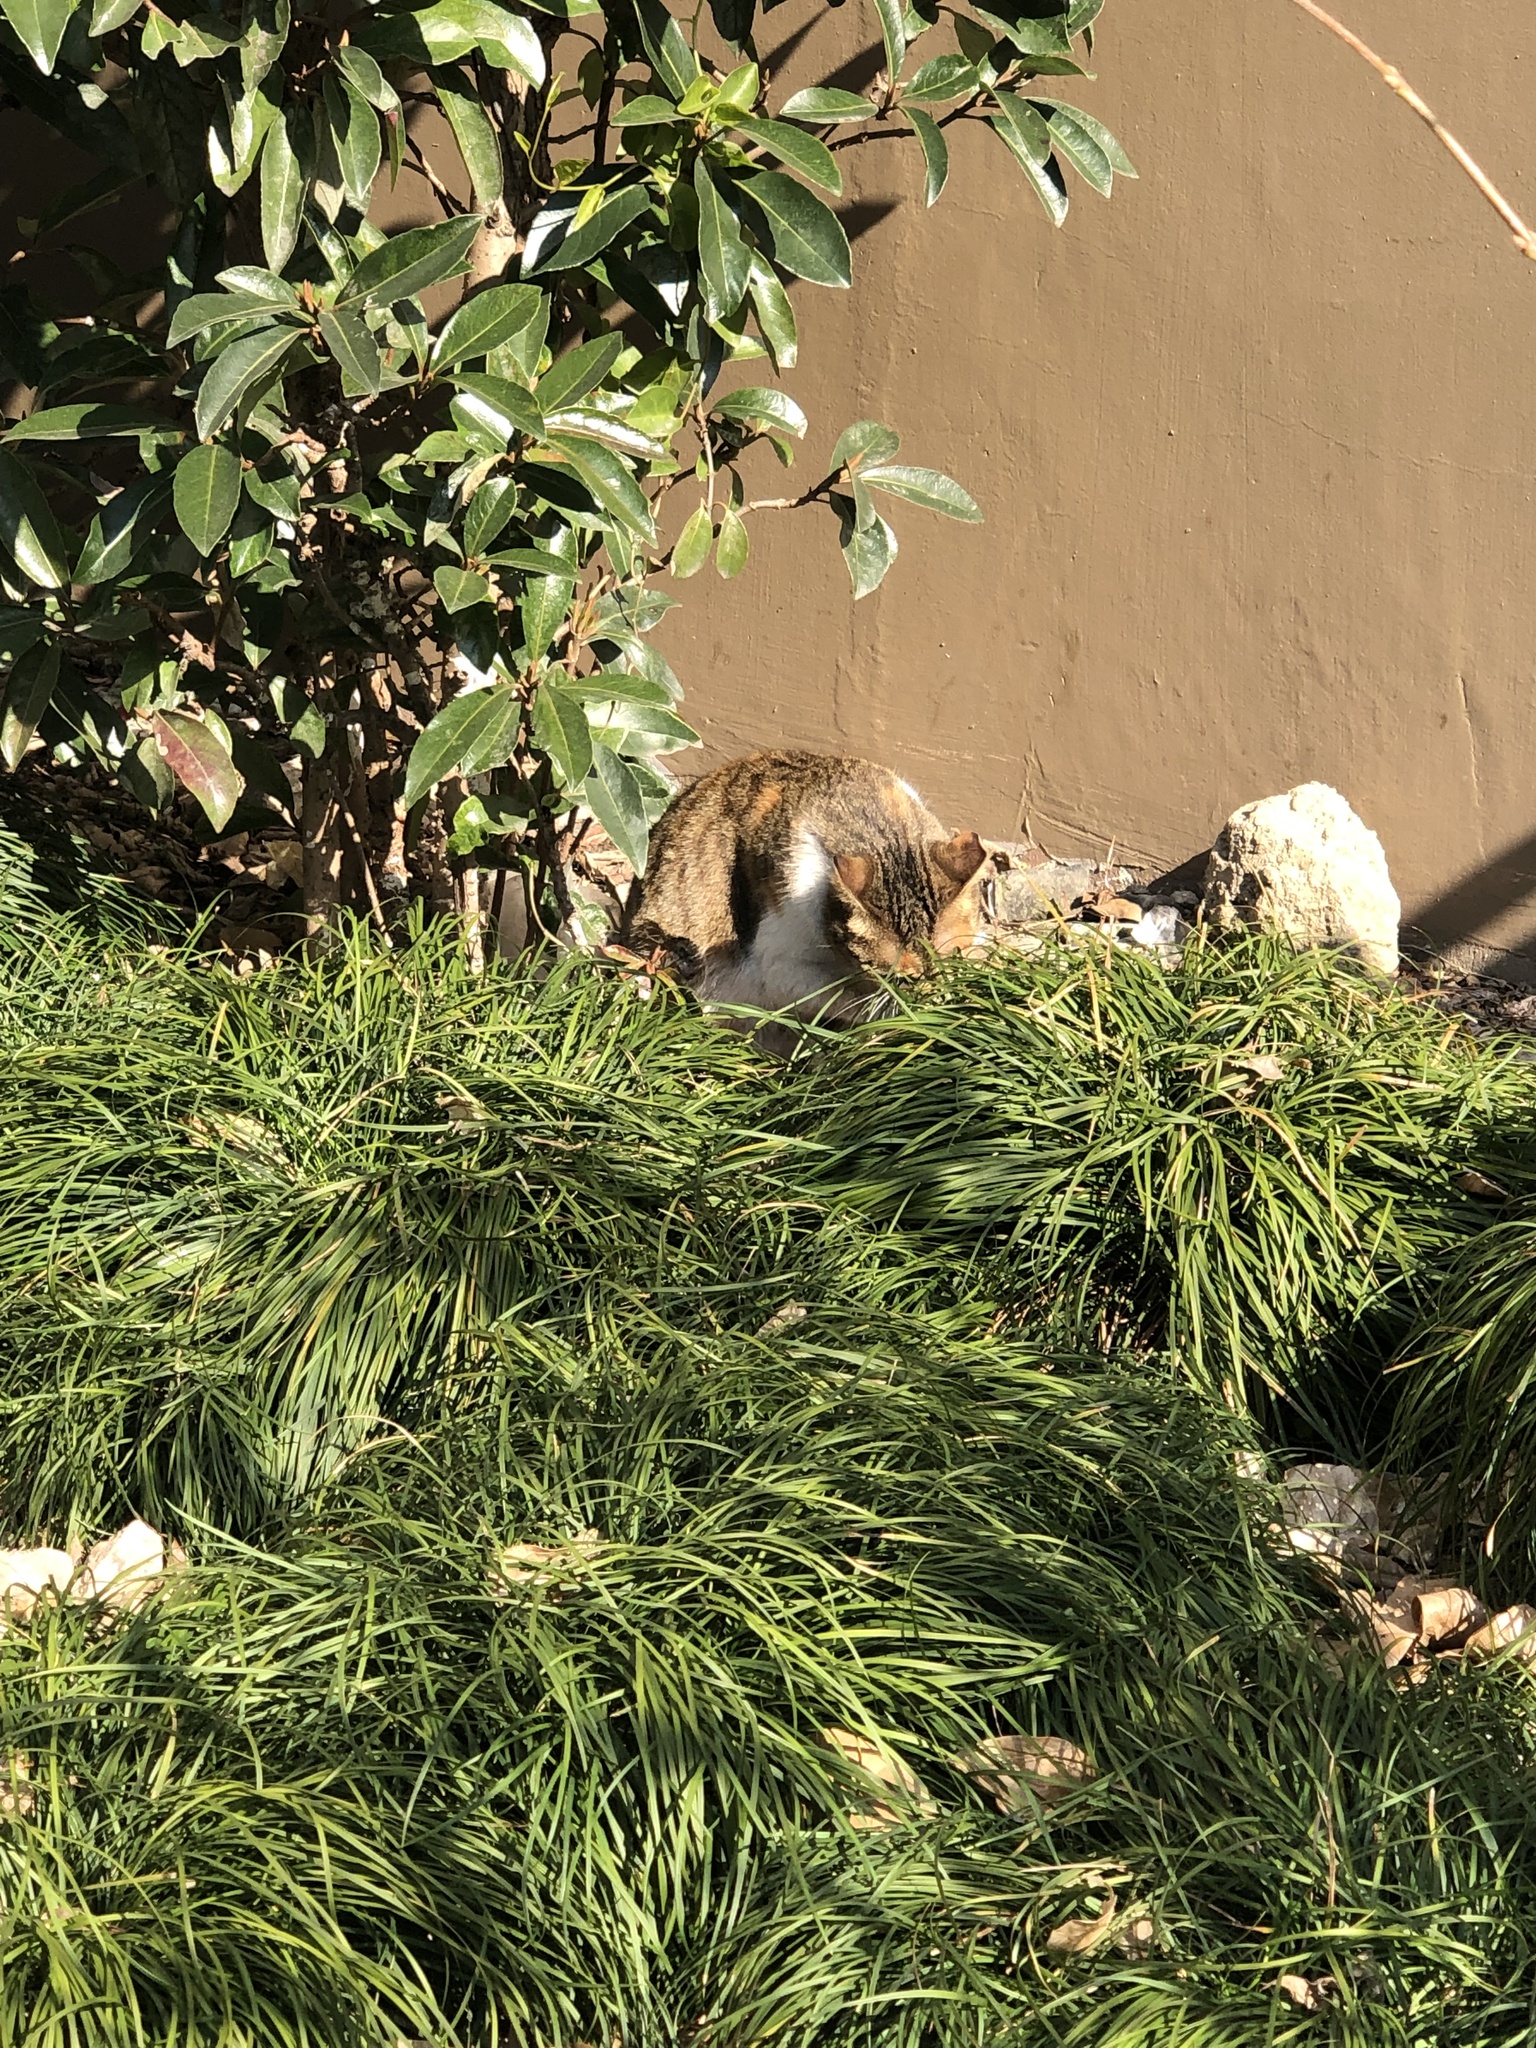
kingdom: Animalia
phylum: Chordata
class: Mammalia
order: Carnivora
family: Felidae
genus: Felis
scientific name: Felis catus
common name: Domestic cat
